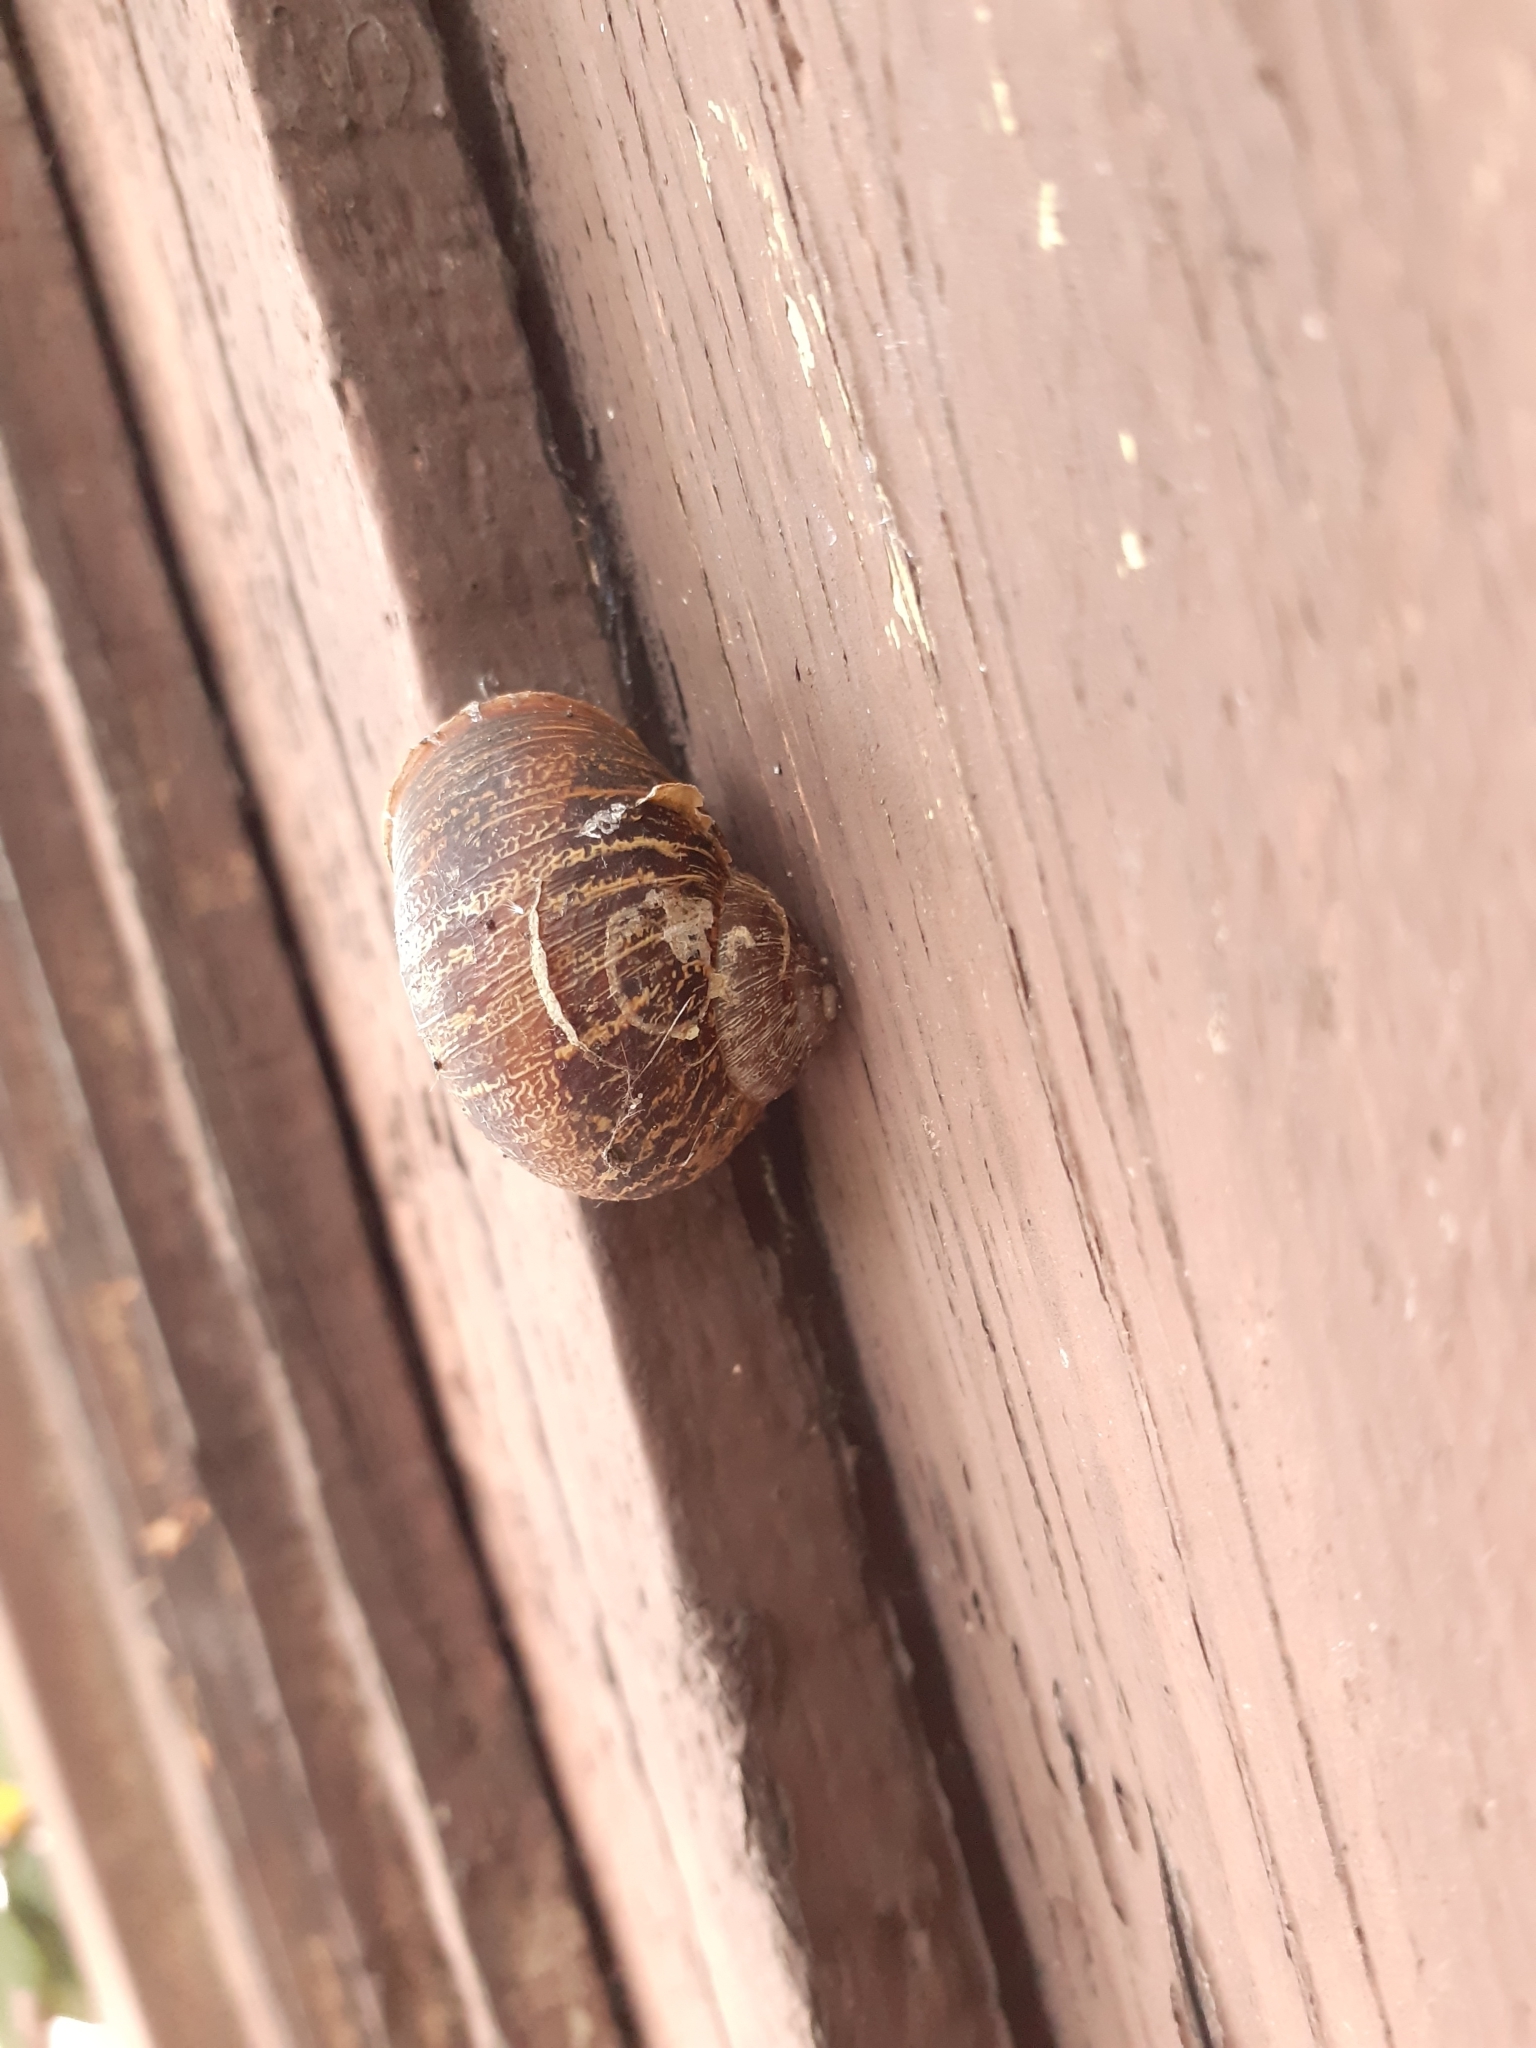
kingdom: Animalia
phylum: Mollusca
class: Gastropoda
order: Stylommatophora
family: Helicidae
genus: Cornu
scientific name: Cornu aspersum
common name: Brown garden snail
